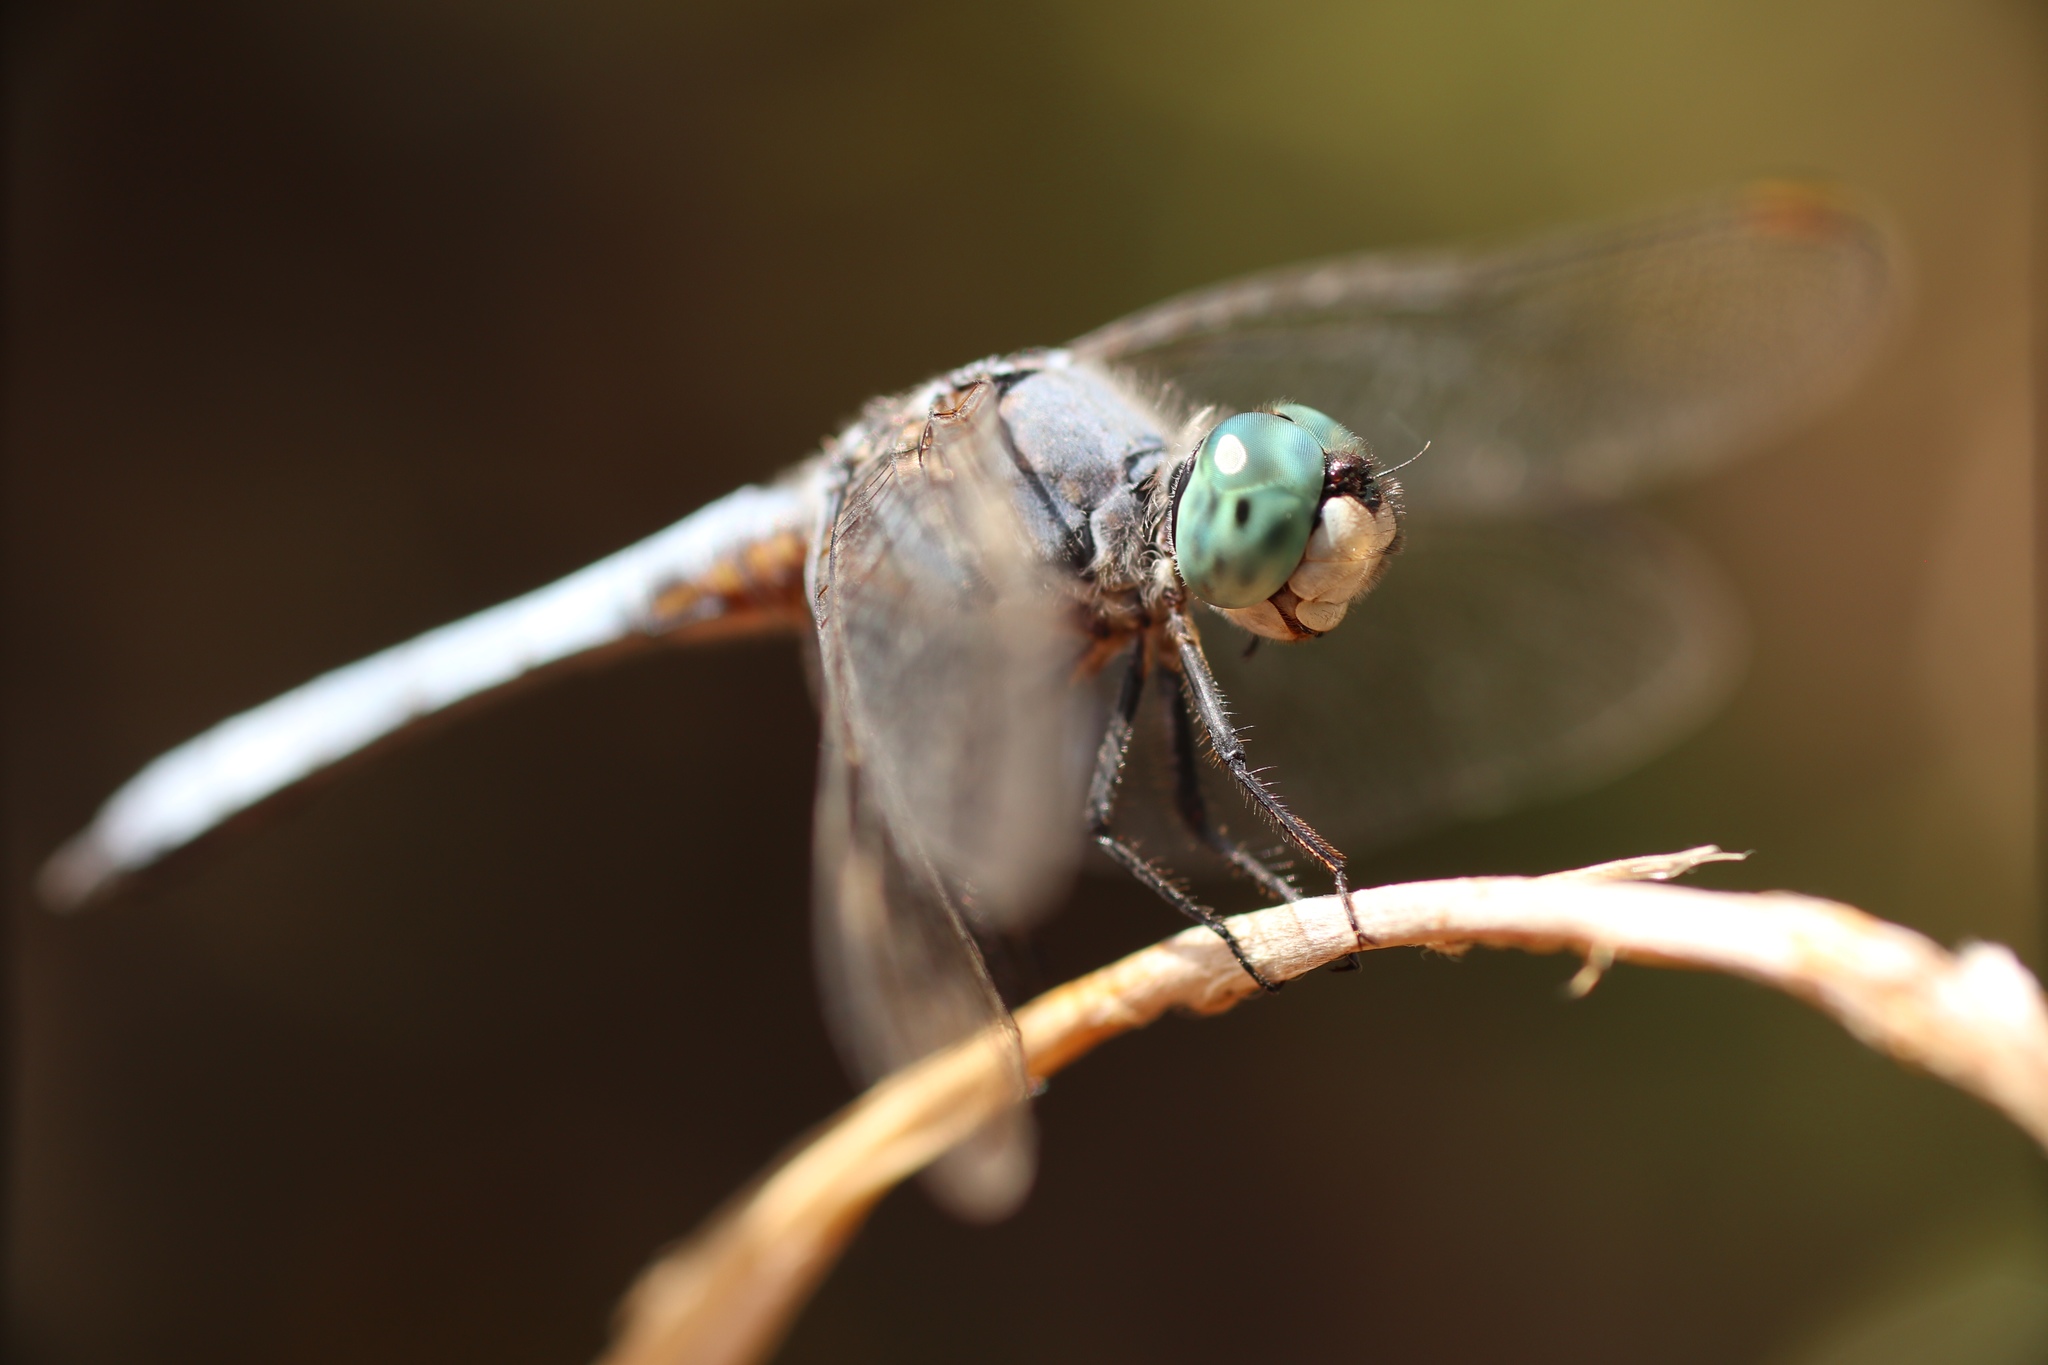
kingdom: Animalia
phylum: Arthropoda
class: Insecta
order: Odonata
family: Libellulidae
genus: Pachydiplax
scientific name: Pachydiplax longipennis
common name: Blue dasher
